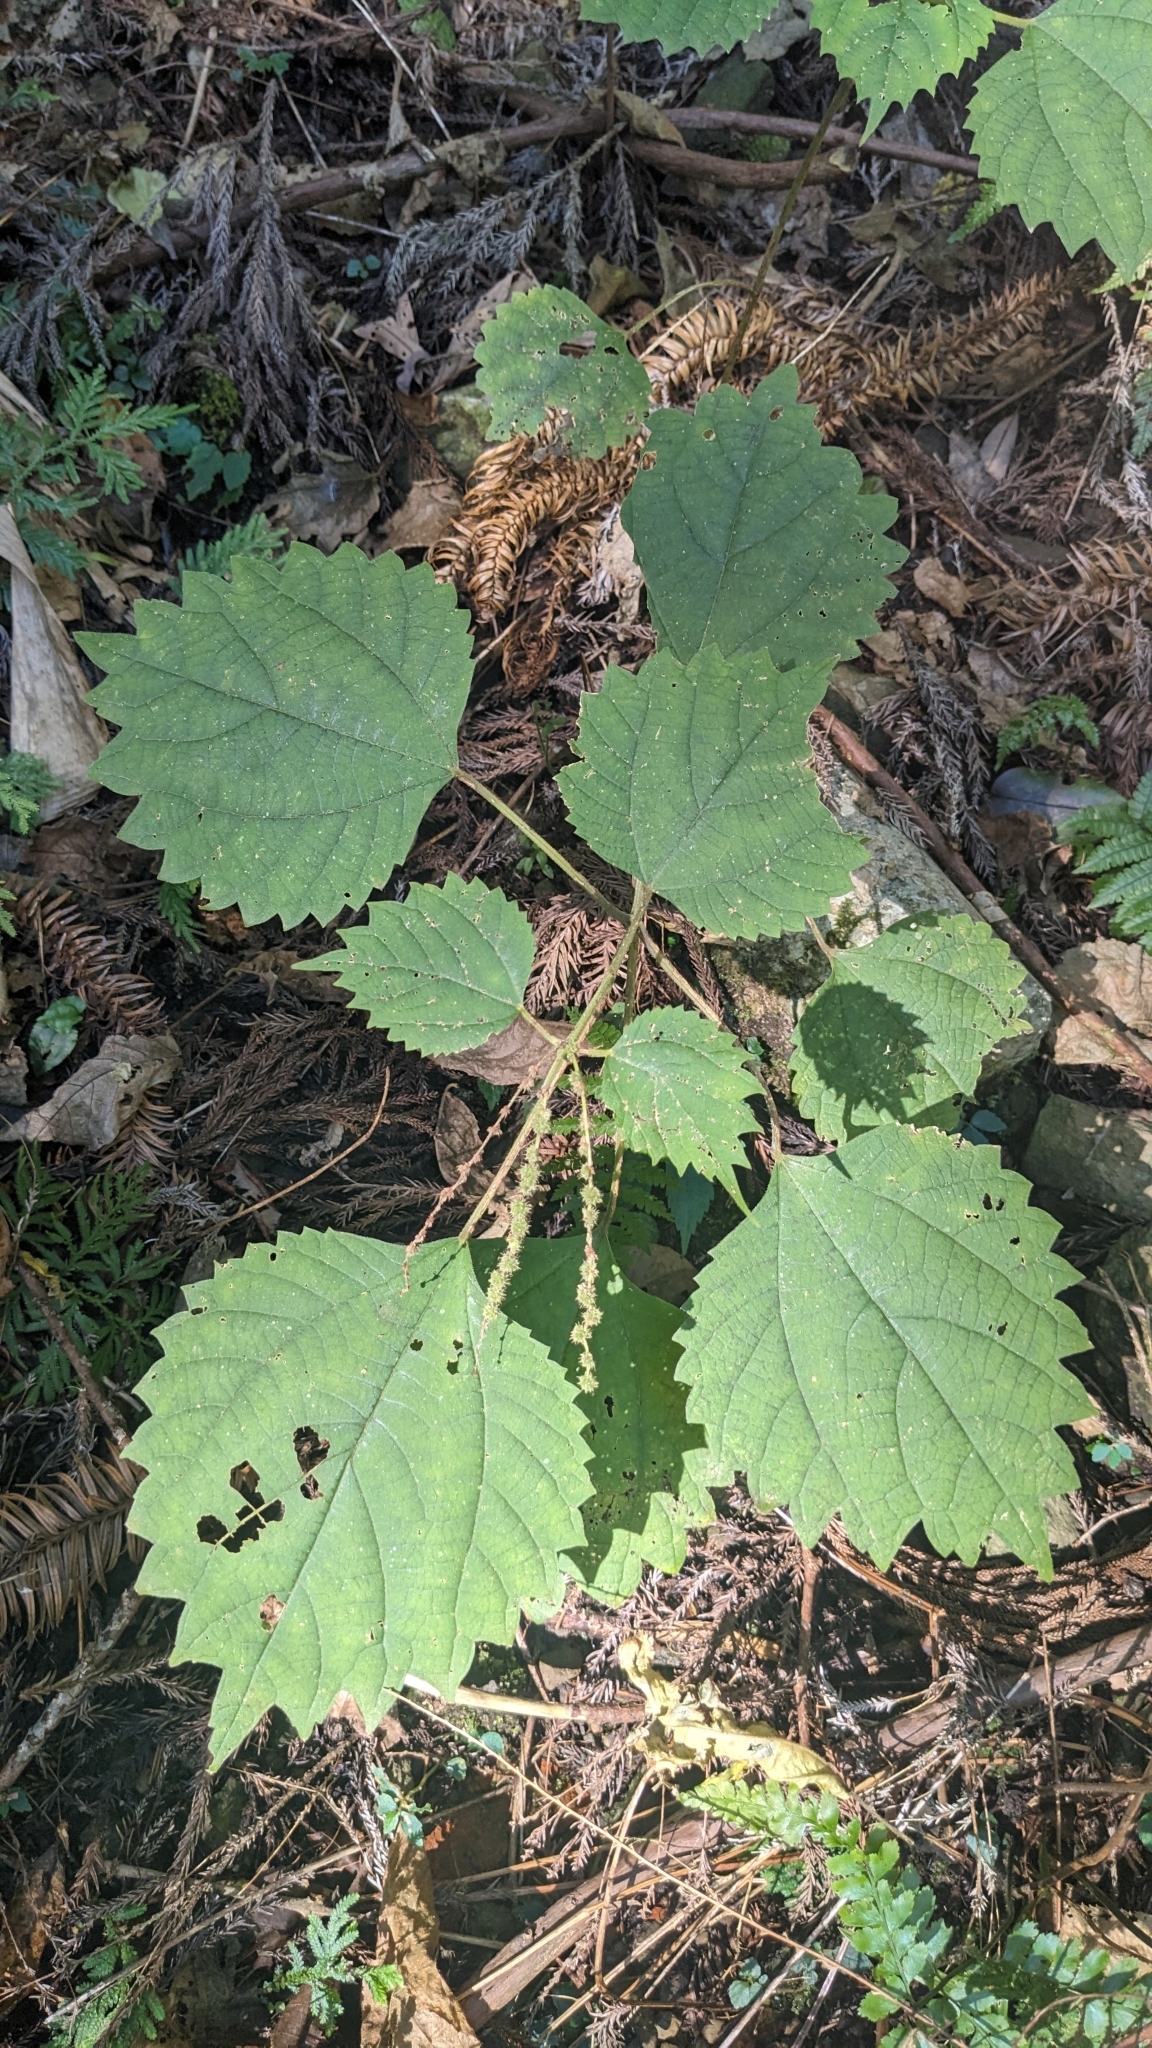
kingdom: Plantae
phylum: Tracheophyta
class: Magnoliopsida
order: Rosales
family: Urticaceae
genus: Boehmeria
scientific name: Boehmeria japonica
